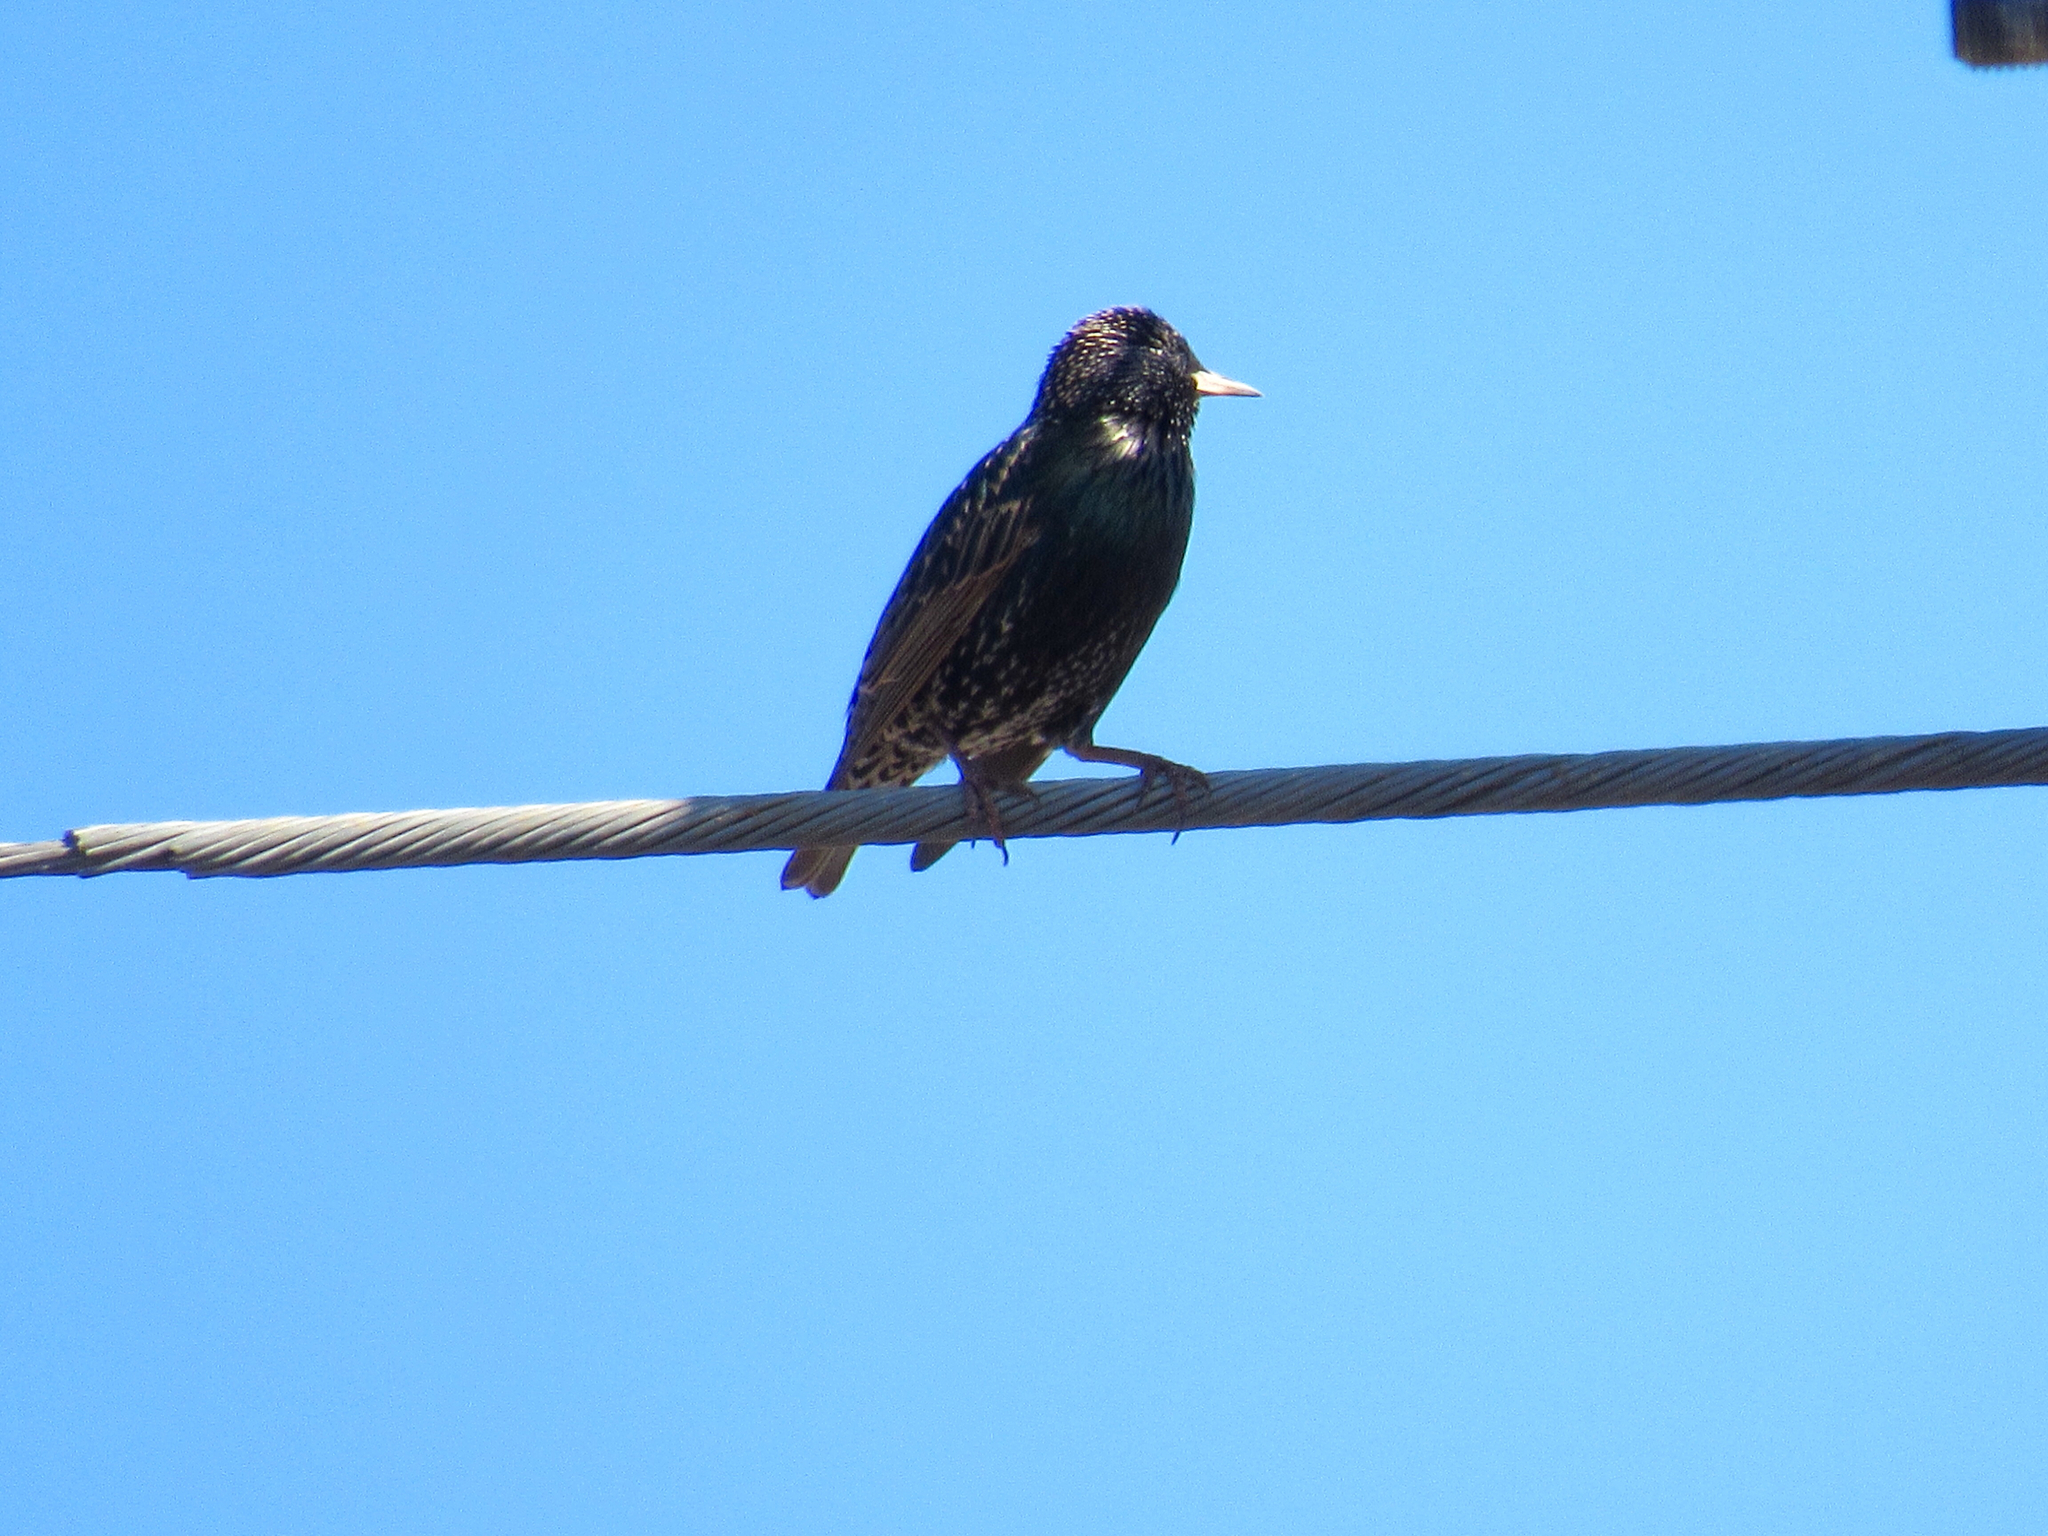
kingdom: Animalia
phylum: Chordata
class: Aves
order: Passeriformes
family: Sturnidae
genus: Sturnus
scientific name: Sturnus vulgaris
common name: Common starling
